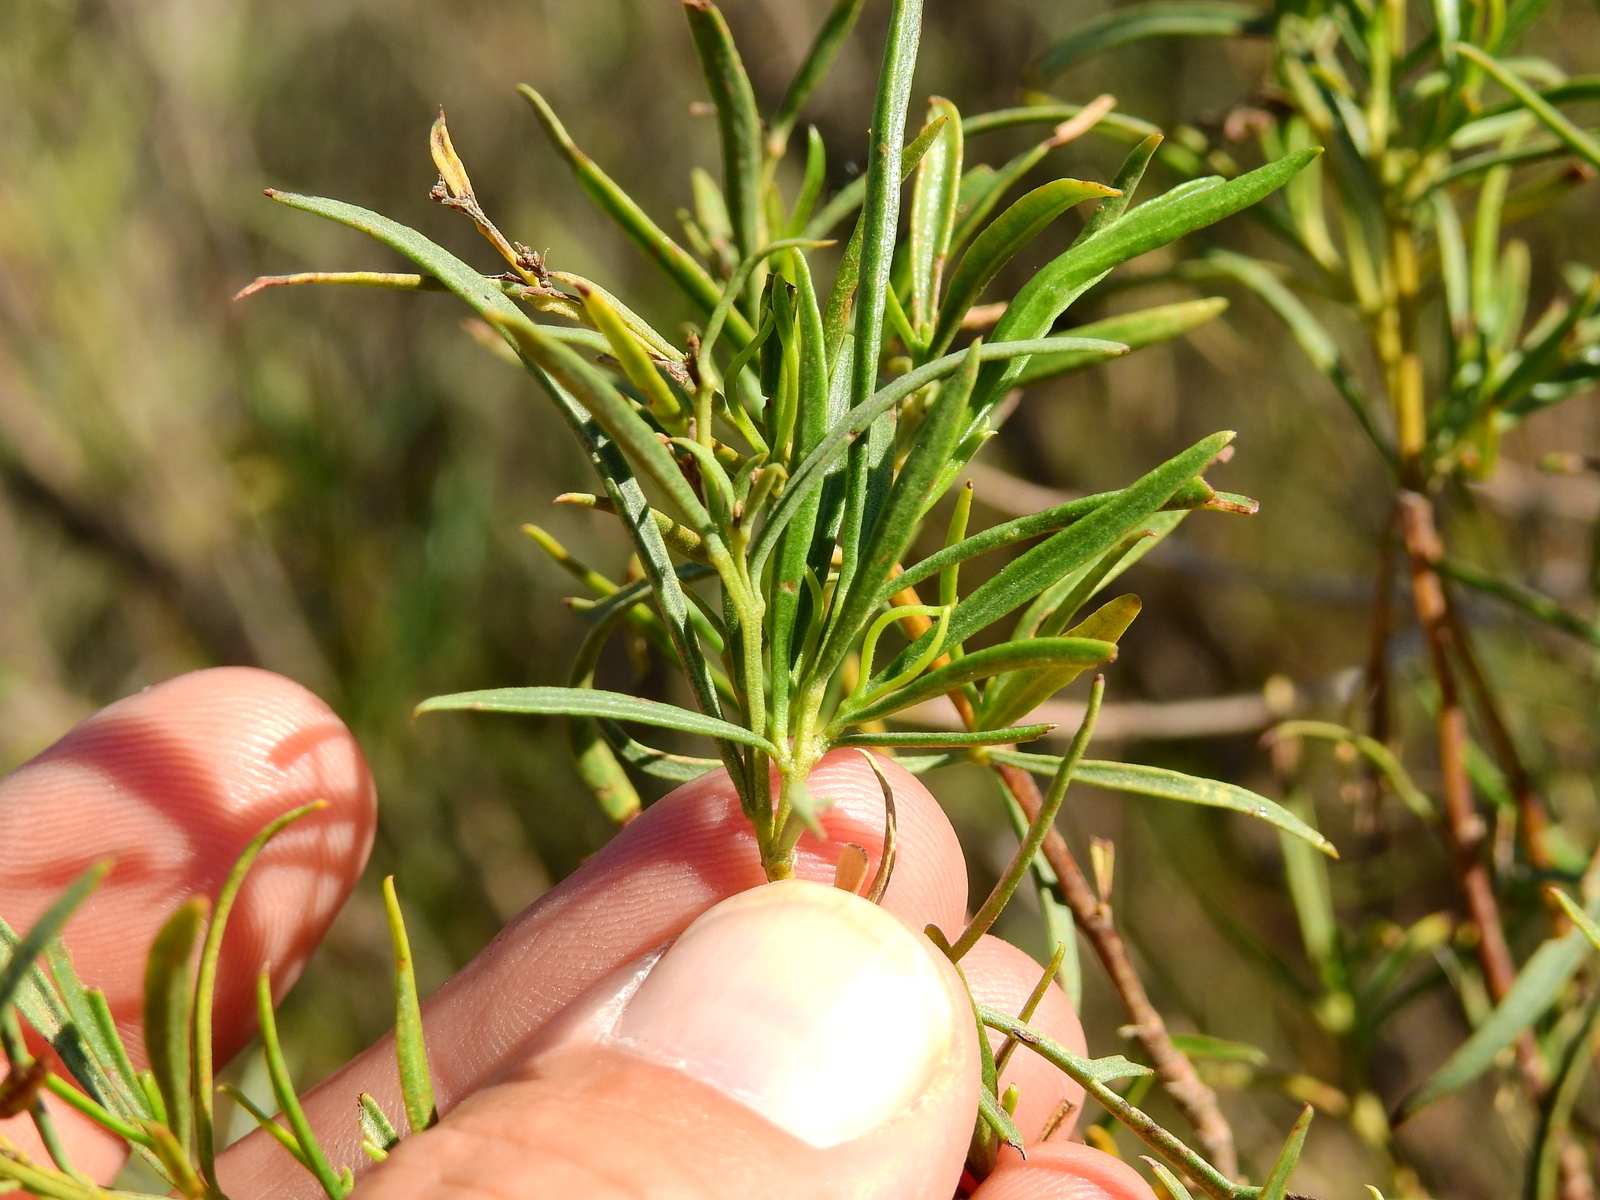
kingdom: Plantae
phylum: Tracheophyta
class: Magnoliopsida
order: Asterales
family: Asteraceae
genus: Acanthostyles
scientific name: Acanthostyles buniifolius
